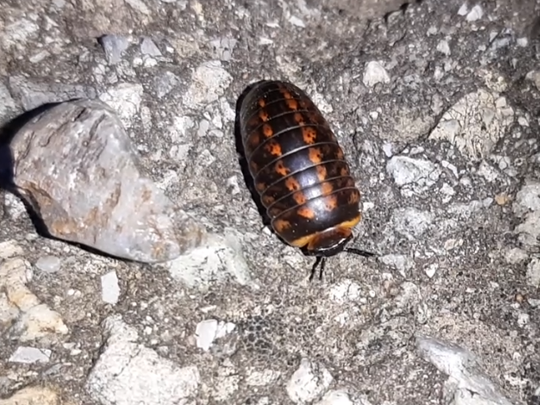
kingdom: Animalia
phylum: Arthropoda
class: Diplopoda
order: Glomerida
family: Glomeridae
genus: Glomeris
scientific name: Glomeris klugii
